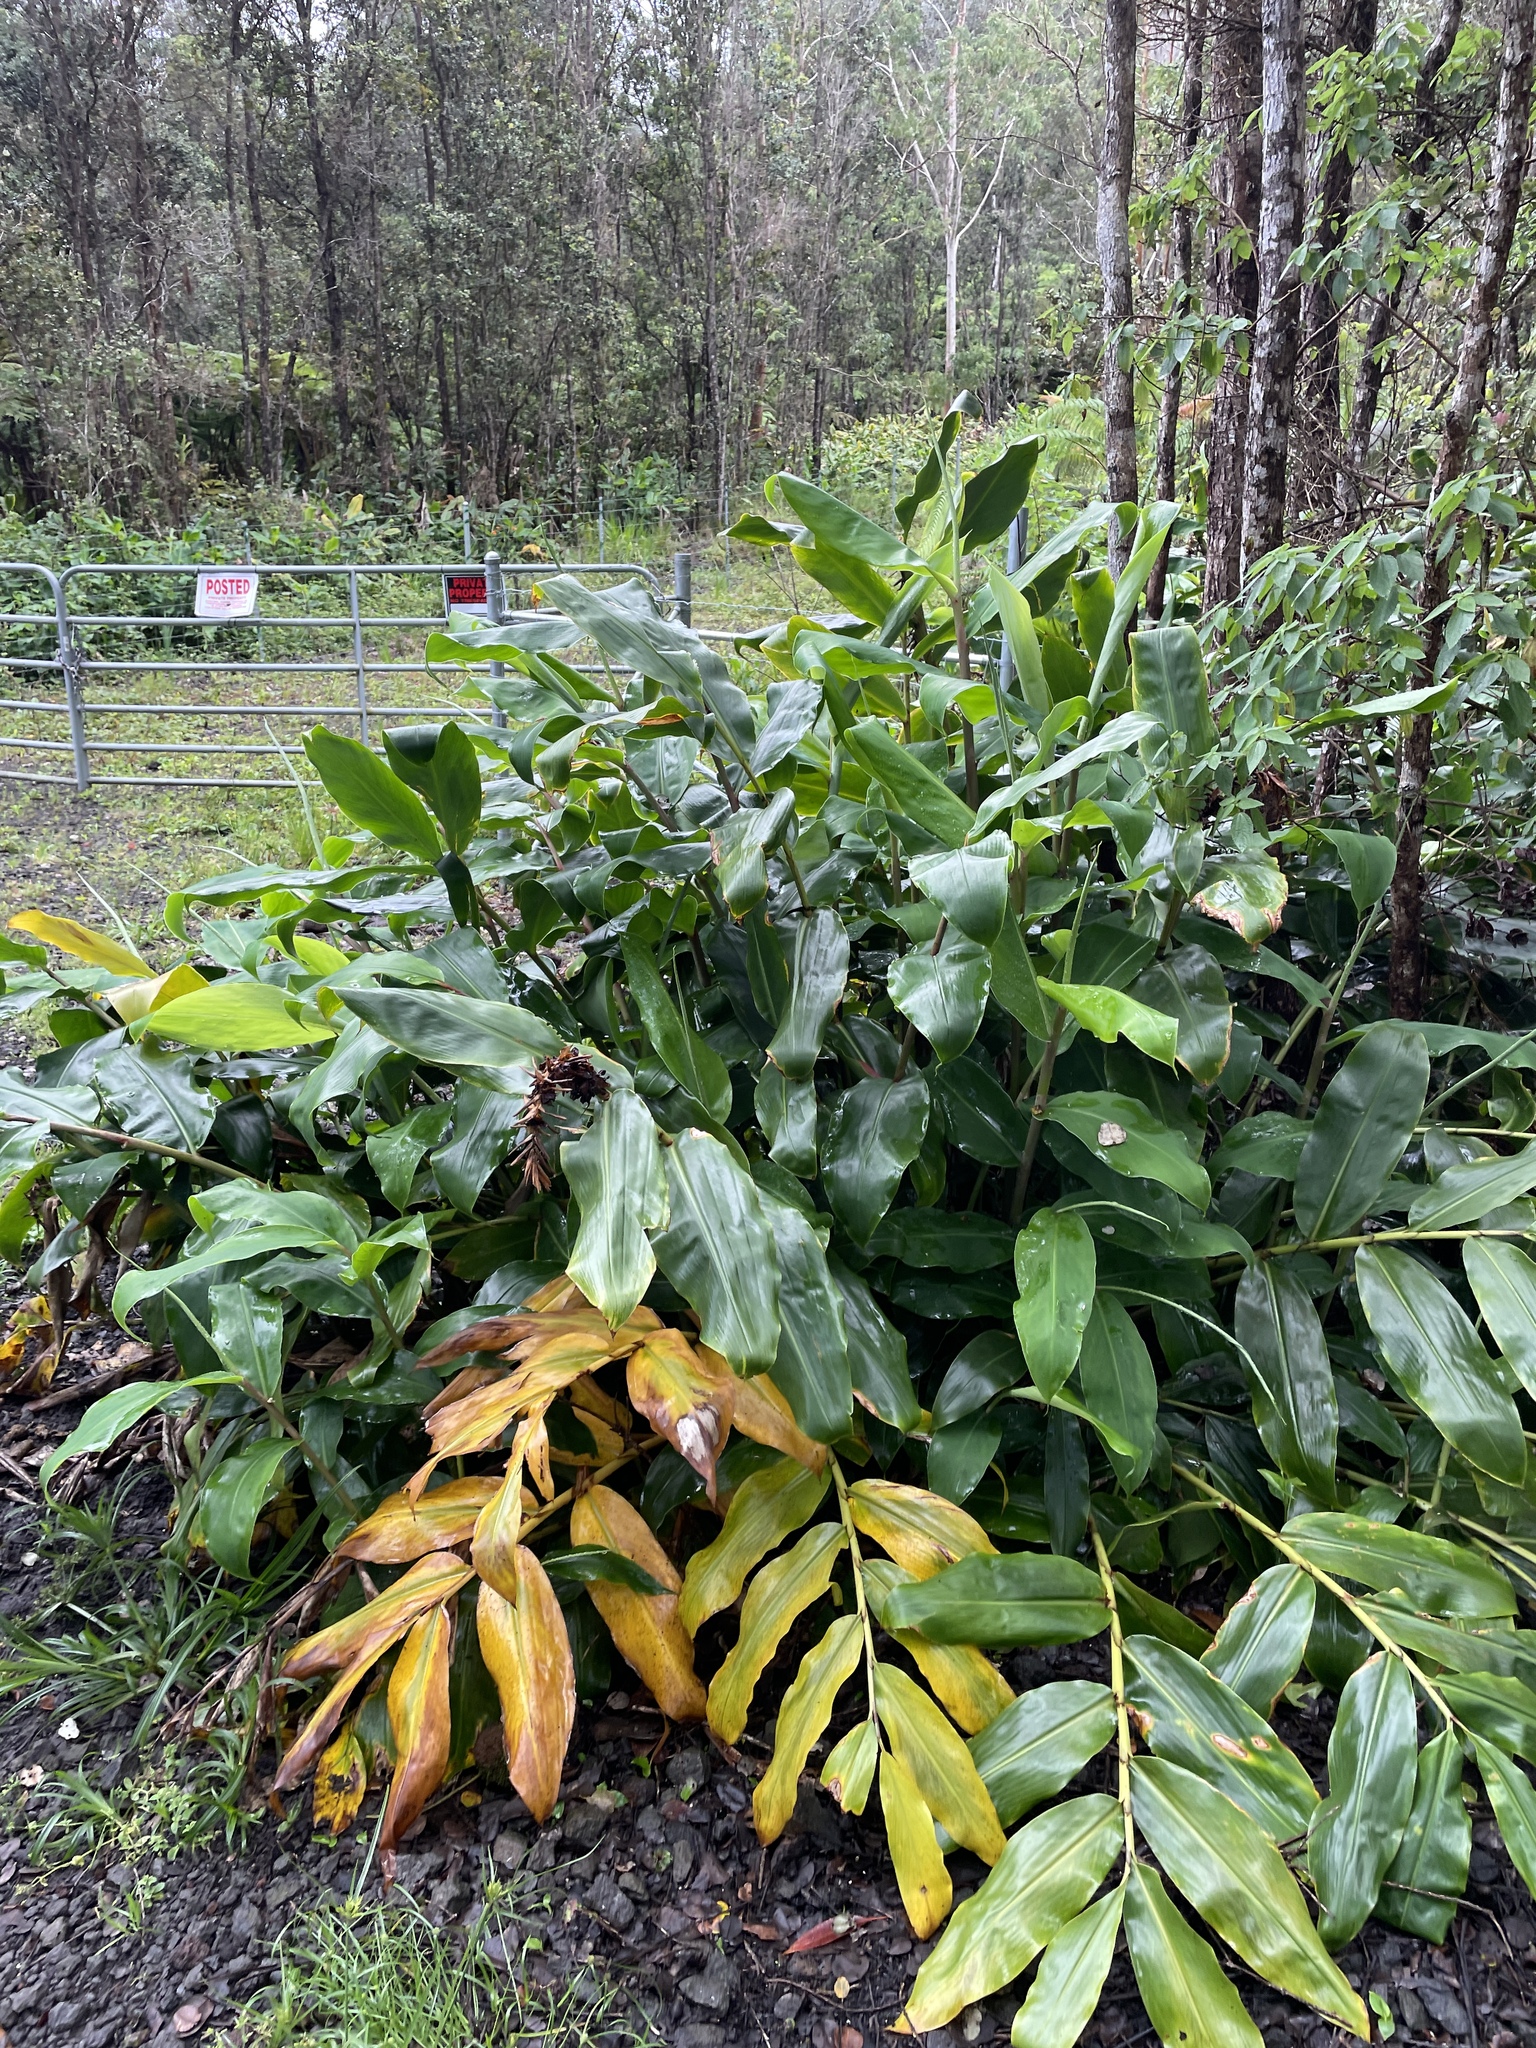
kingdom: Plantae
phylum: Tracheophyta
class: Liliopsida
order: Zingiberales
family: Zingiberaceae
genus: Hedychium
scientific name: Hedychium gardnerianum
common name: Himalayan ginger
